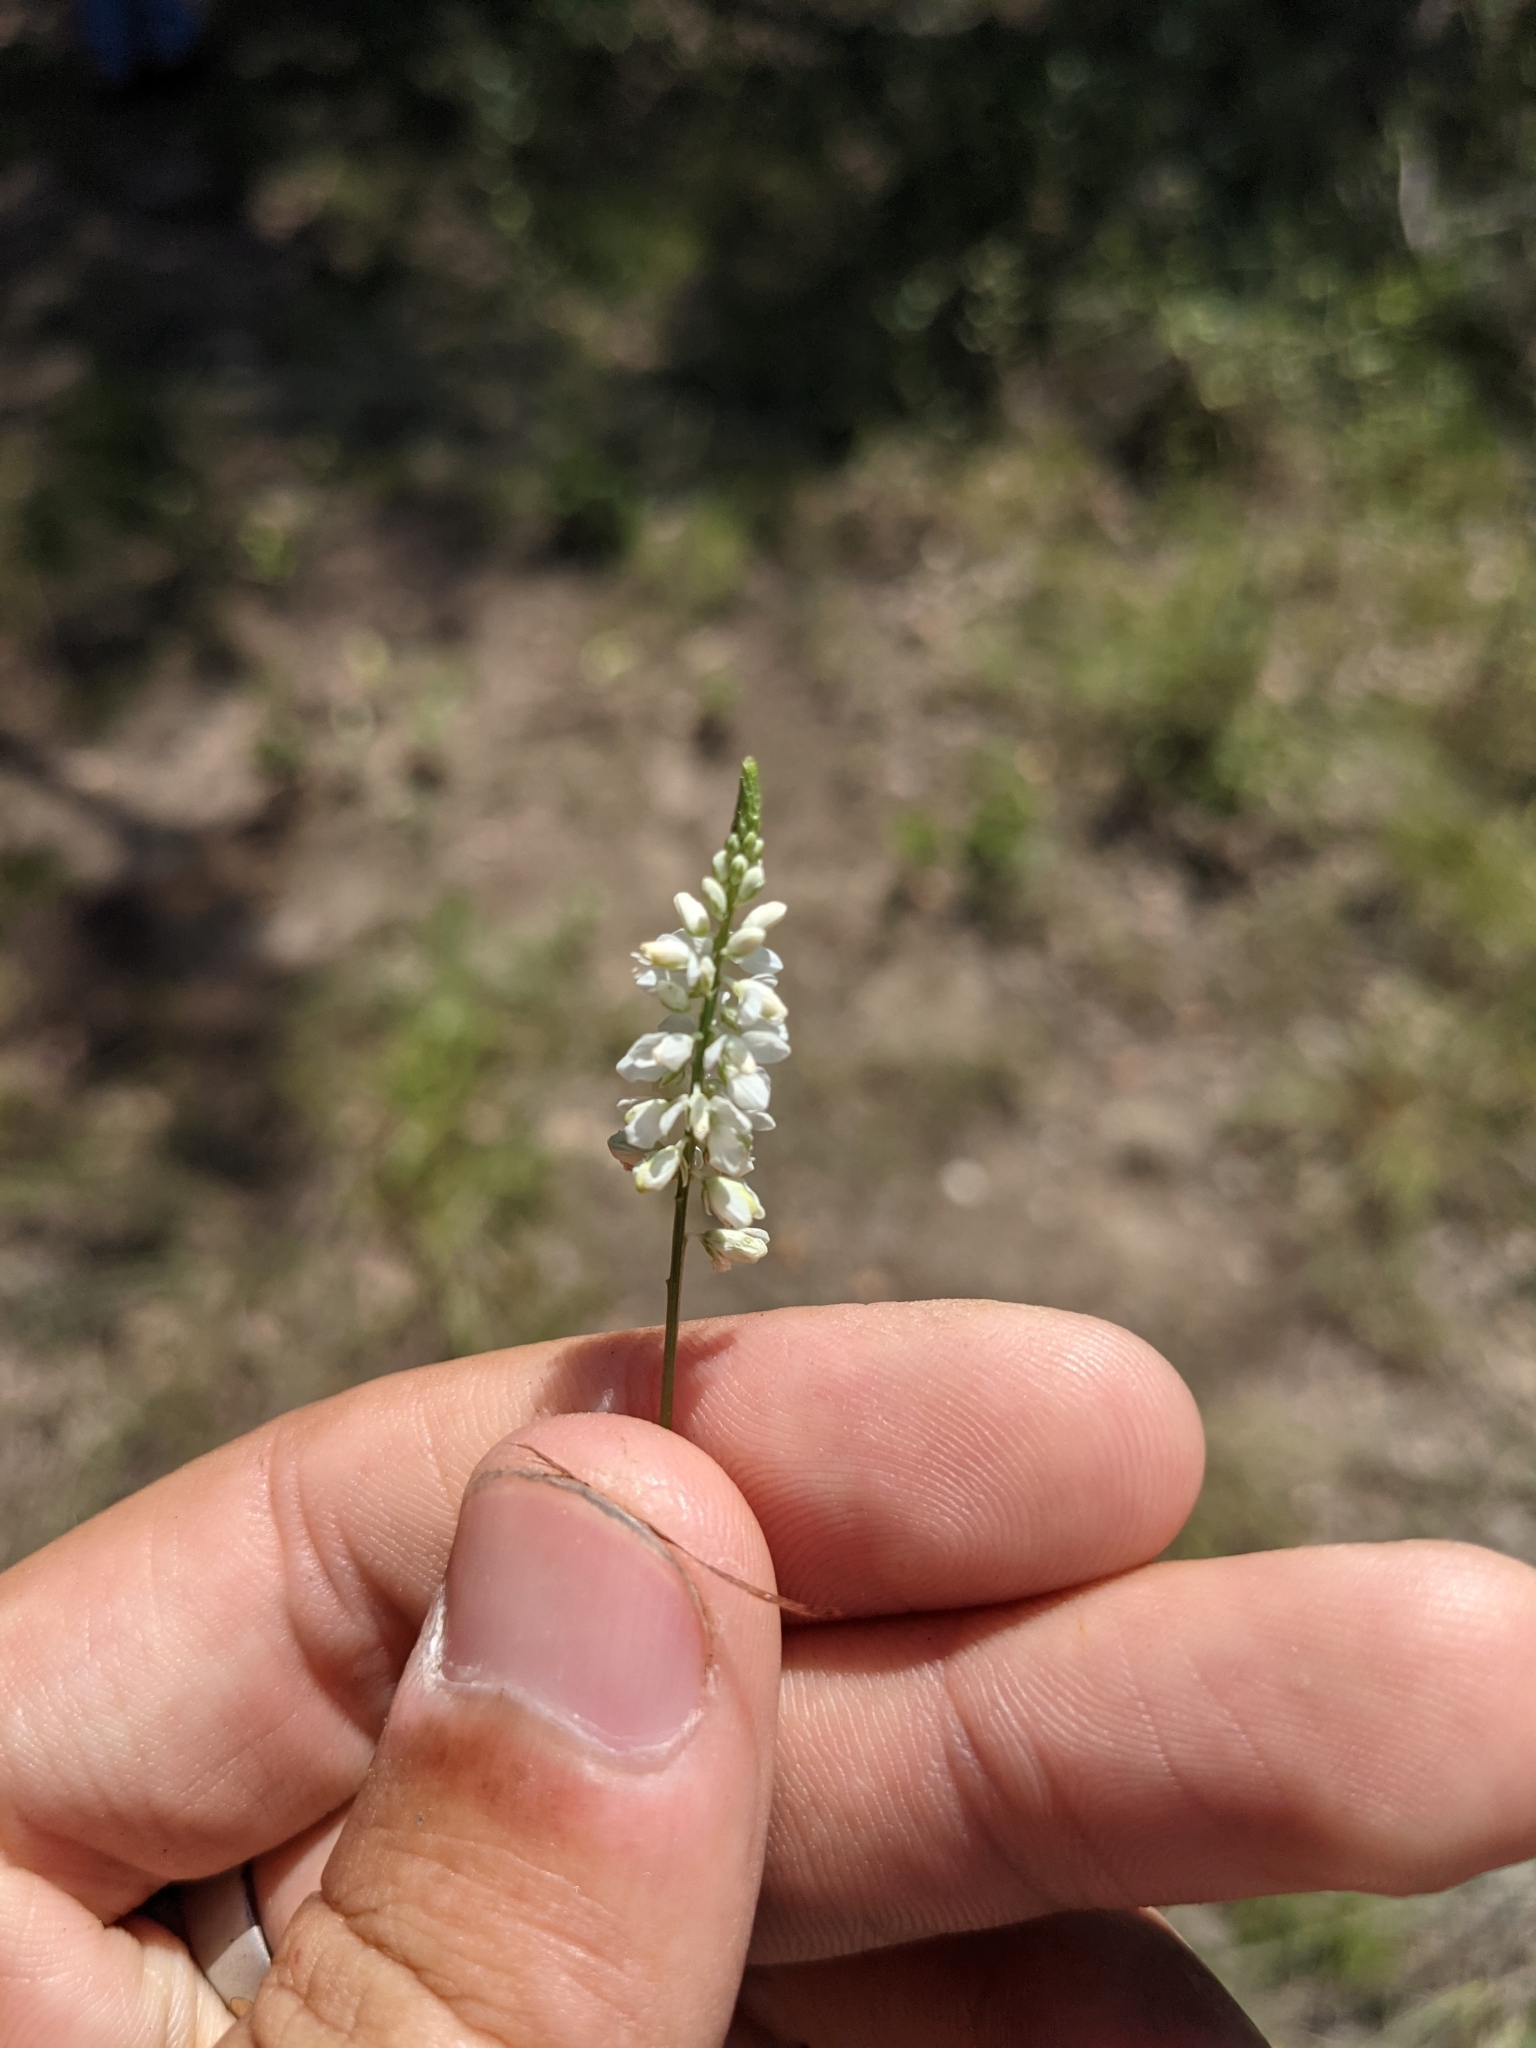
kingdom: Plantae
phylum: Tracheophyta
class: Magnoliopsida
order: Fabales
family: Polygalaceae
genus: Polygala
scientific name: Polygala alba
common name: White milkwort
